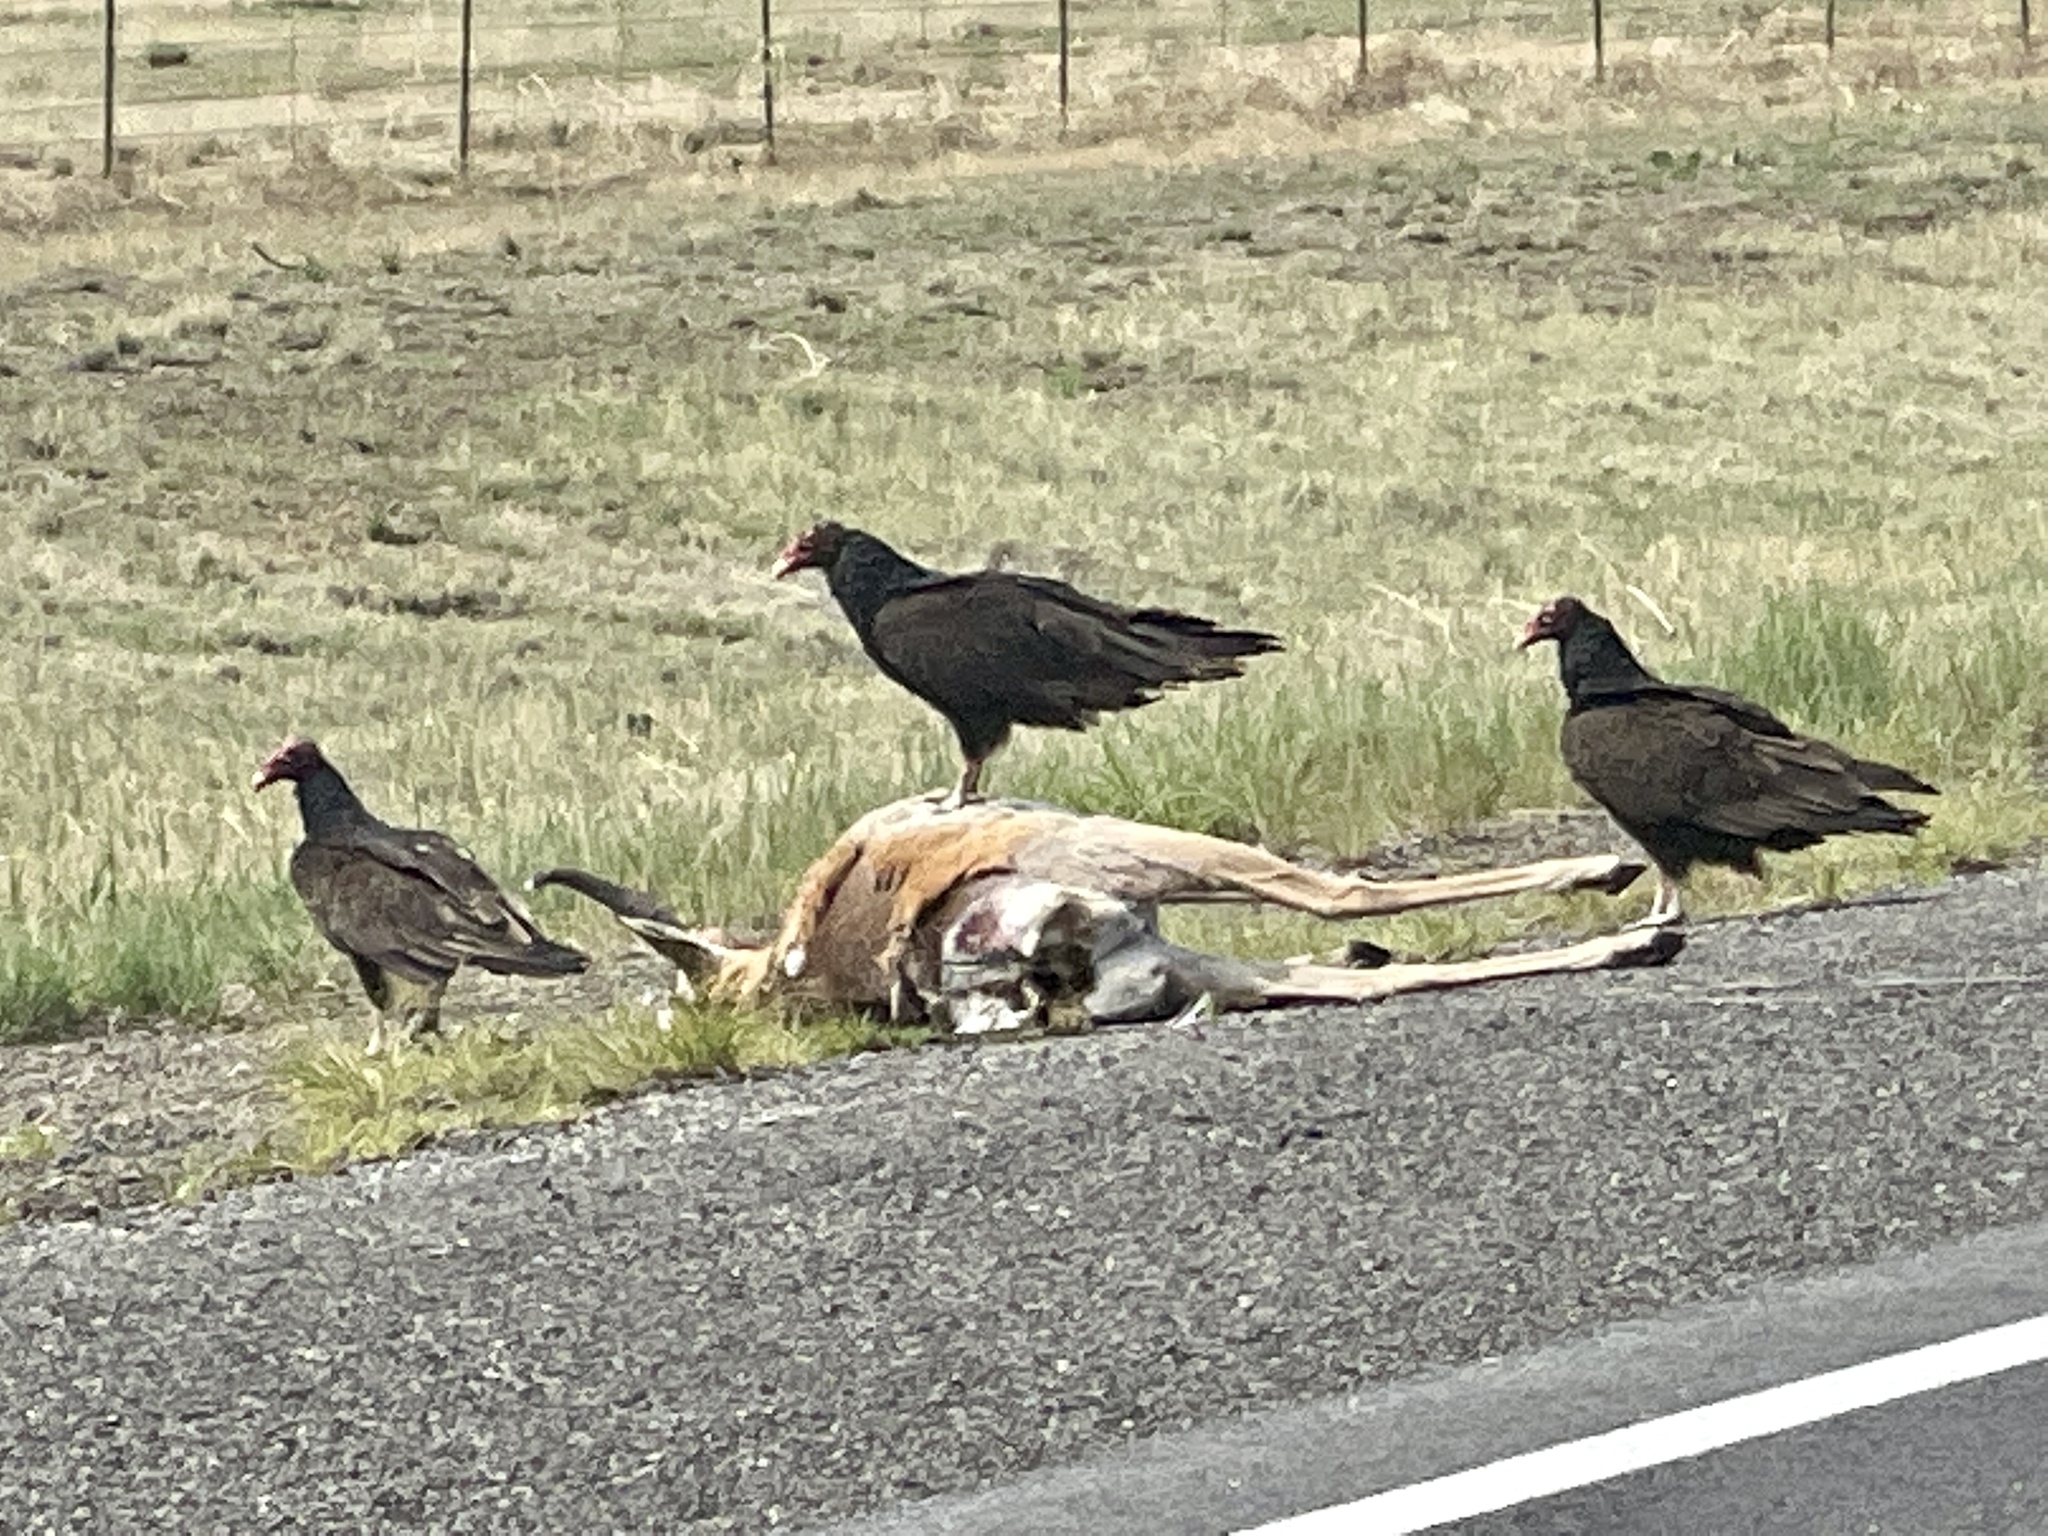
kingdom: Animalia
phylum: Chordata
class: Aves
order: Accipitriformes
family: Cathartidae
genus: Cathartes
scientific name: Cathartes aura
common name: Turkey vulture
